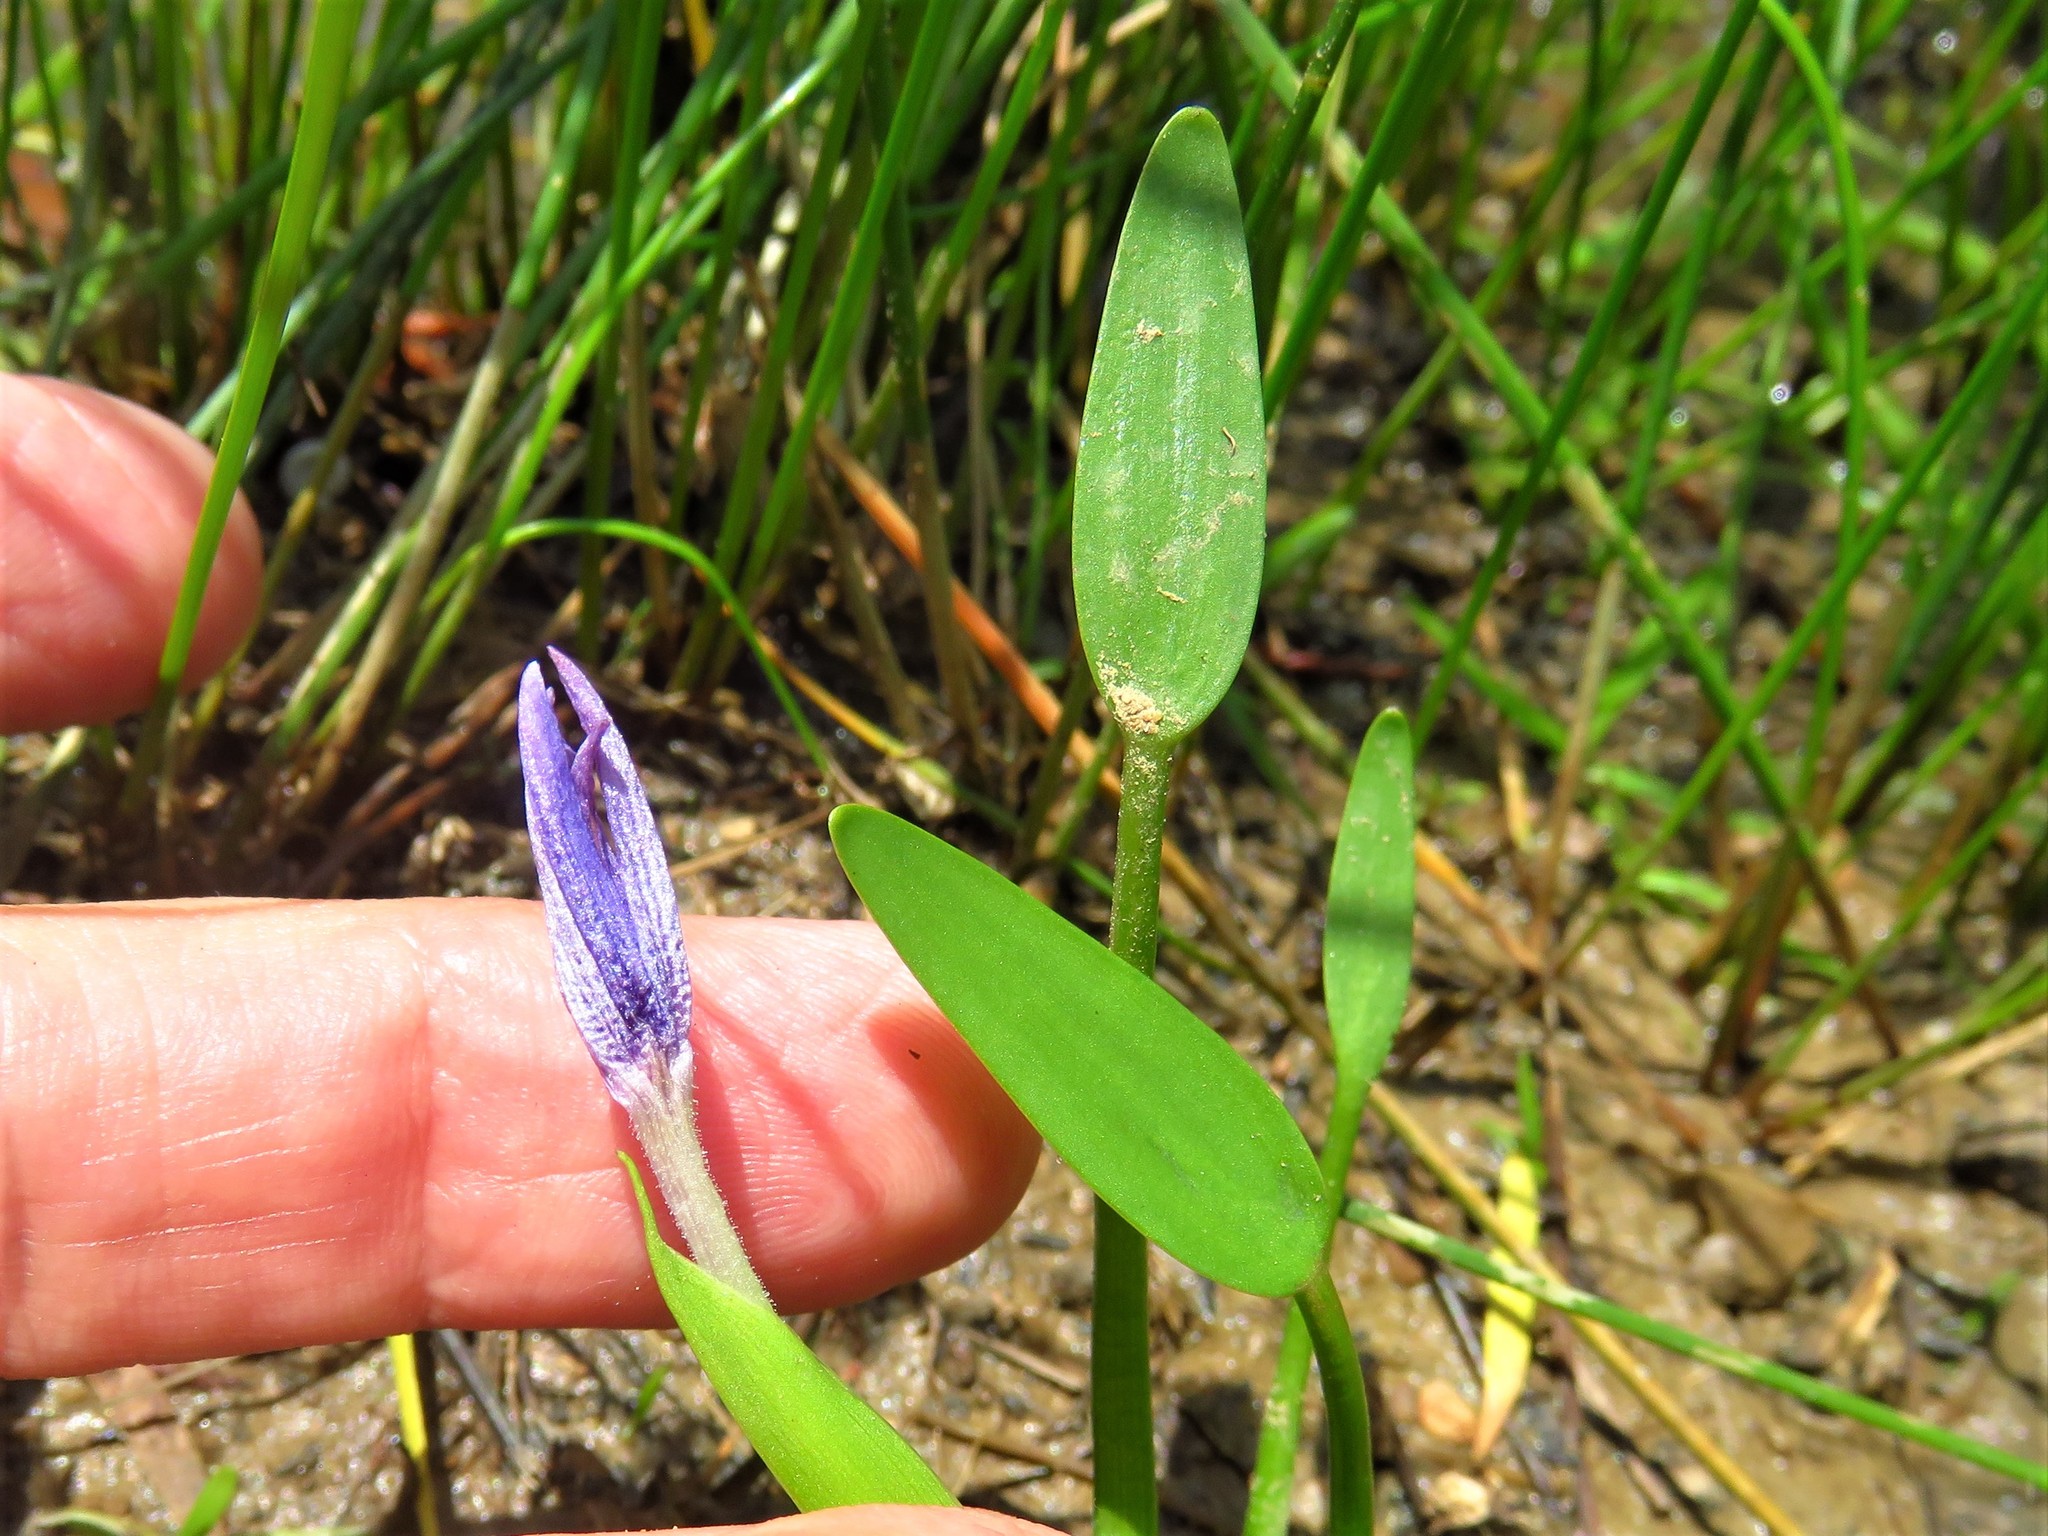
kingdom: Plantae
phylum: Tracheophyta
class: Liliopsida
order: Commelinales
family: Pontederiaceae
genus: Heteranthera
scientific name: Heteranthera limosa
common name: Blue mud-plantain
